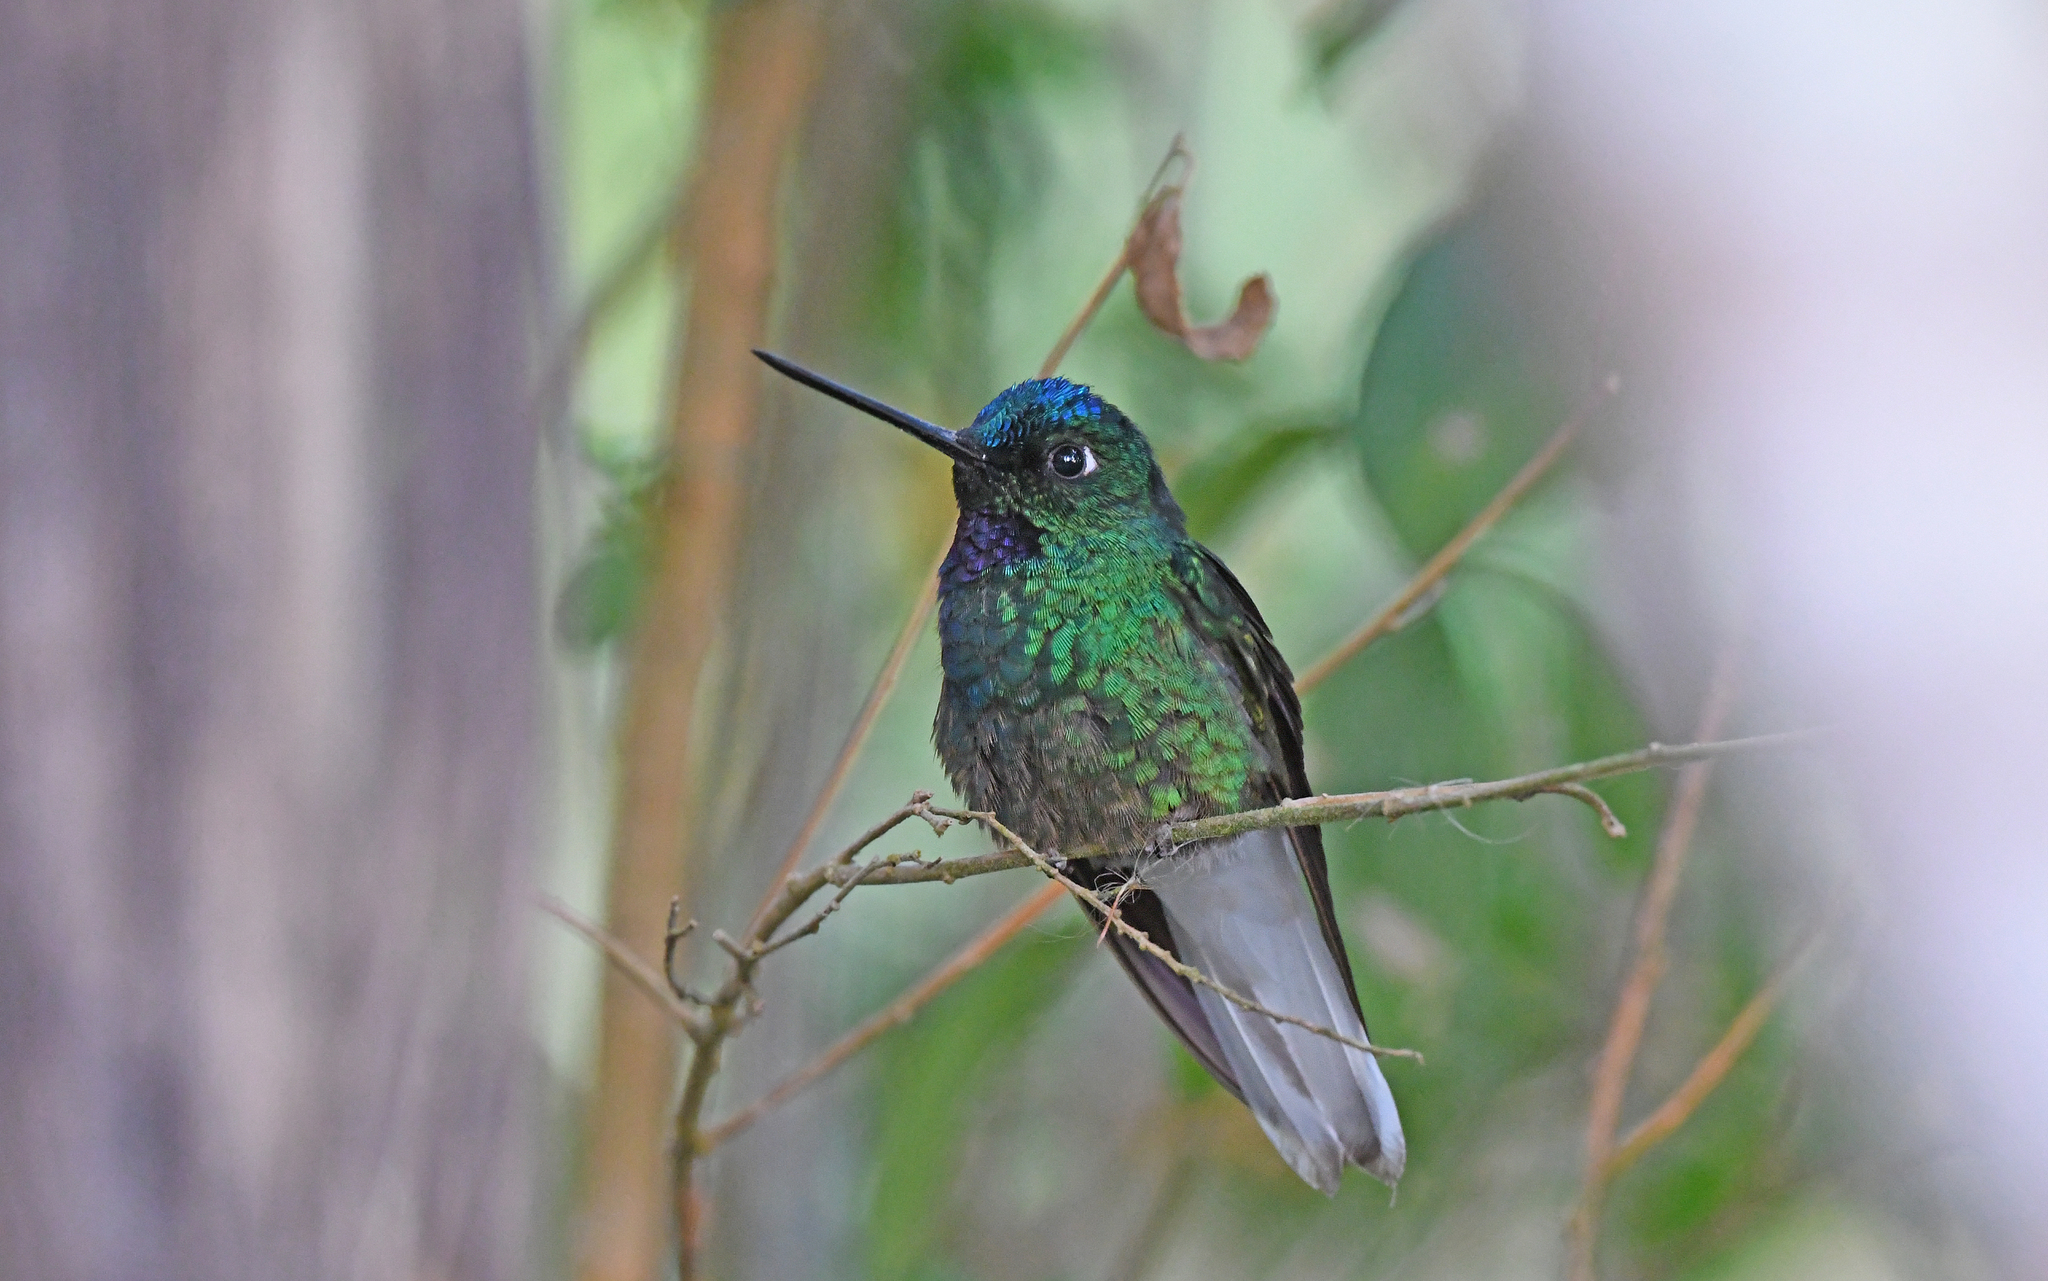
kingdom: Animalia
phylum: Chordata
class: Aves
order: Apodiformes
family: Trochilidae
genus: Coeligena
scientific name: Coeligena phalerata
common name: White-tailed starfrontlet
